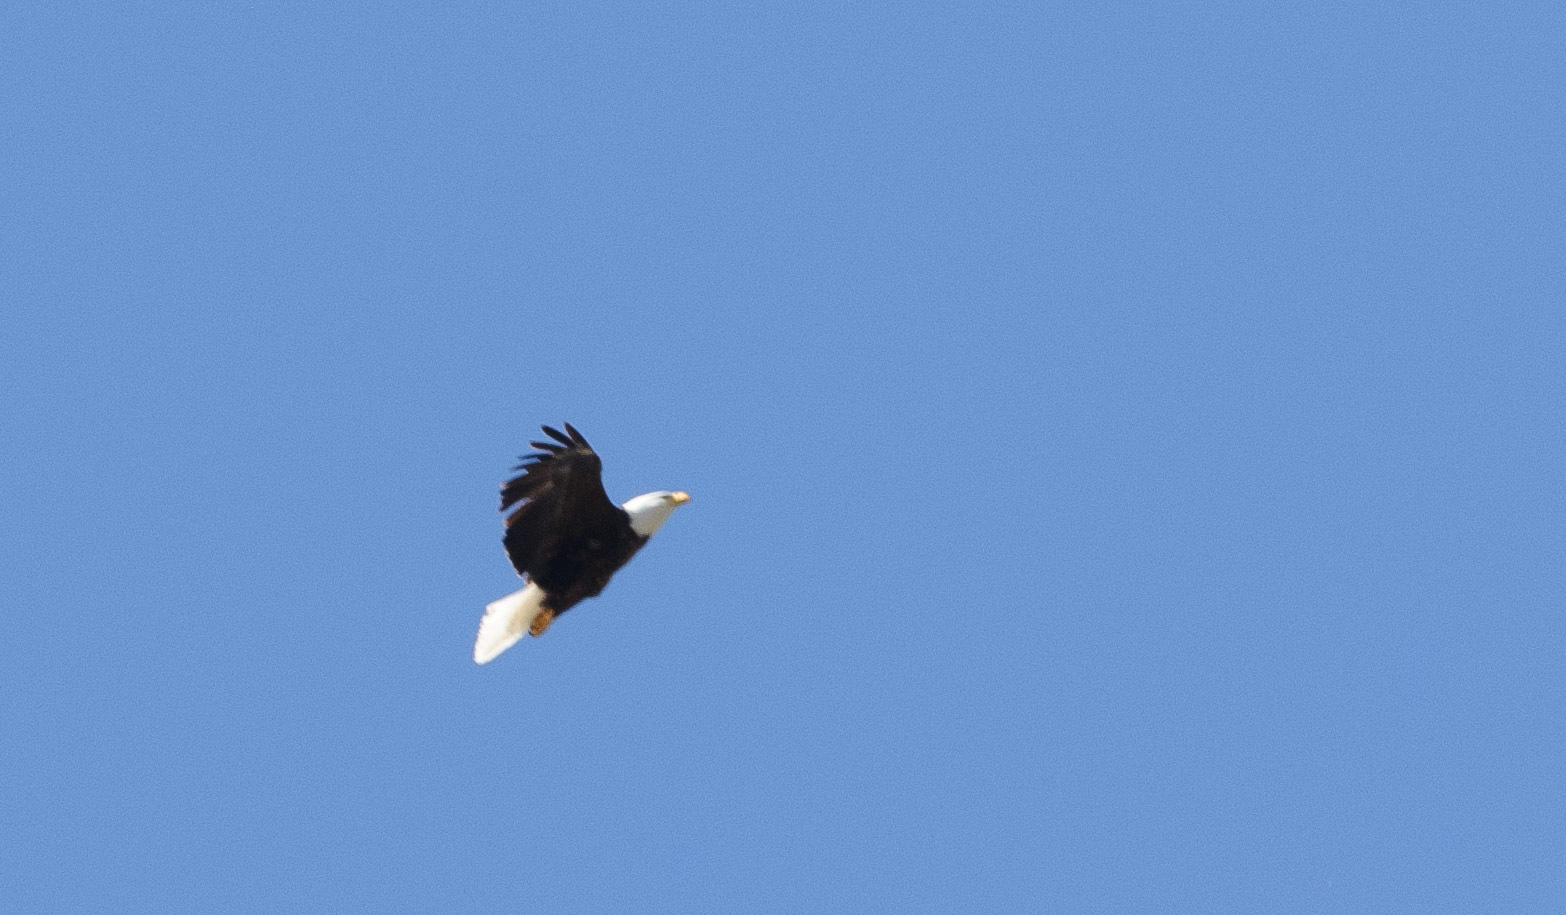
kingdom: Animalia
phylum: Chordata
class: Aves
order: Accipitriformes
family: Accipitridae
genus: Haliaeetus
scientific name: Haliaeetus leucocephalus
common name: Bald eagle
